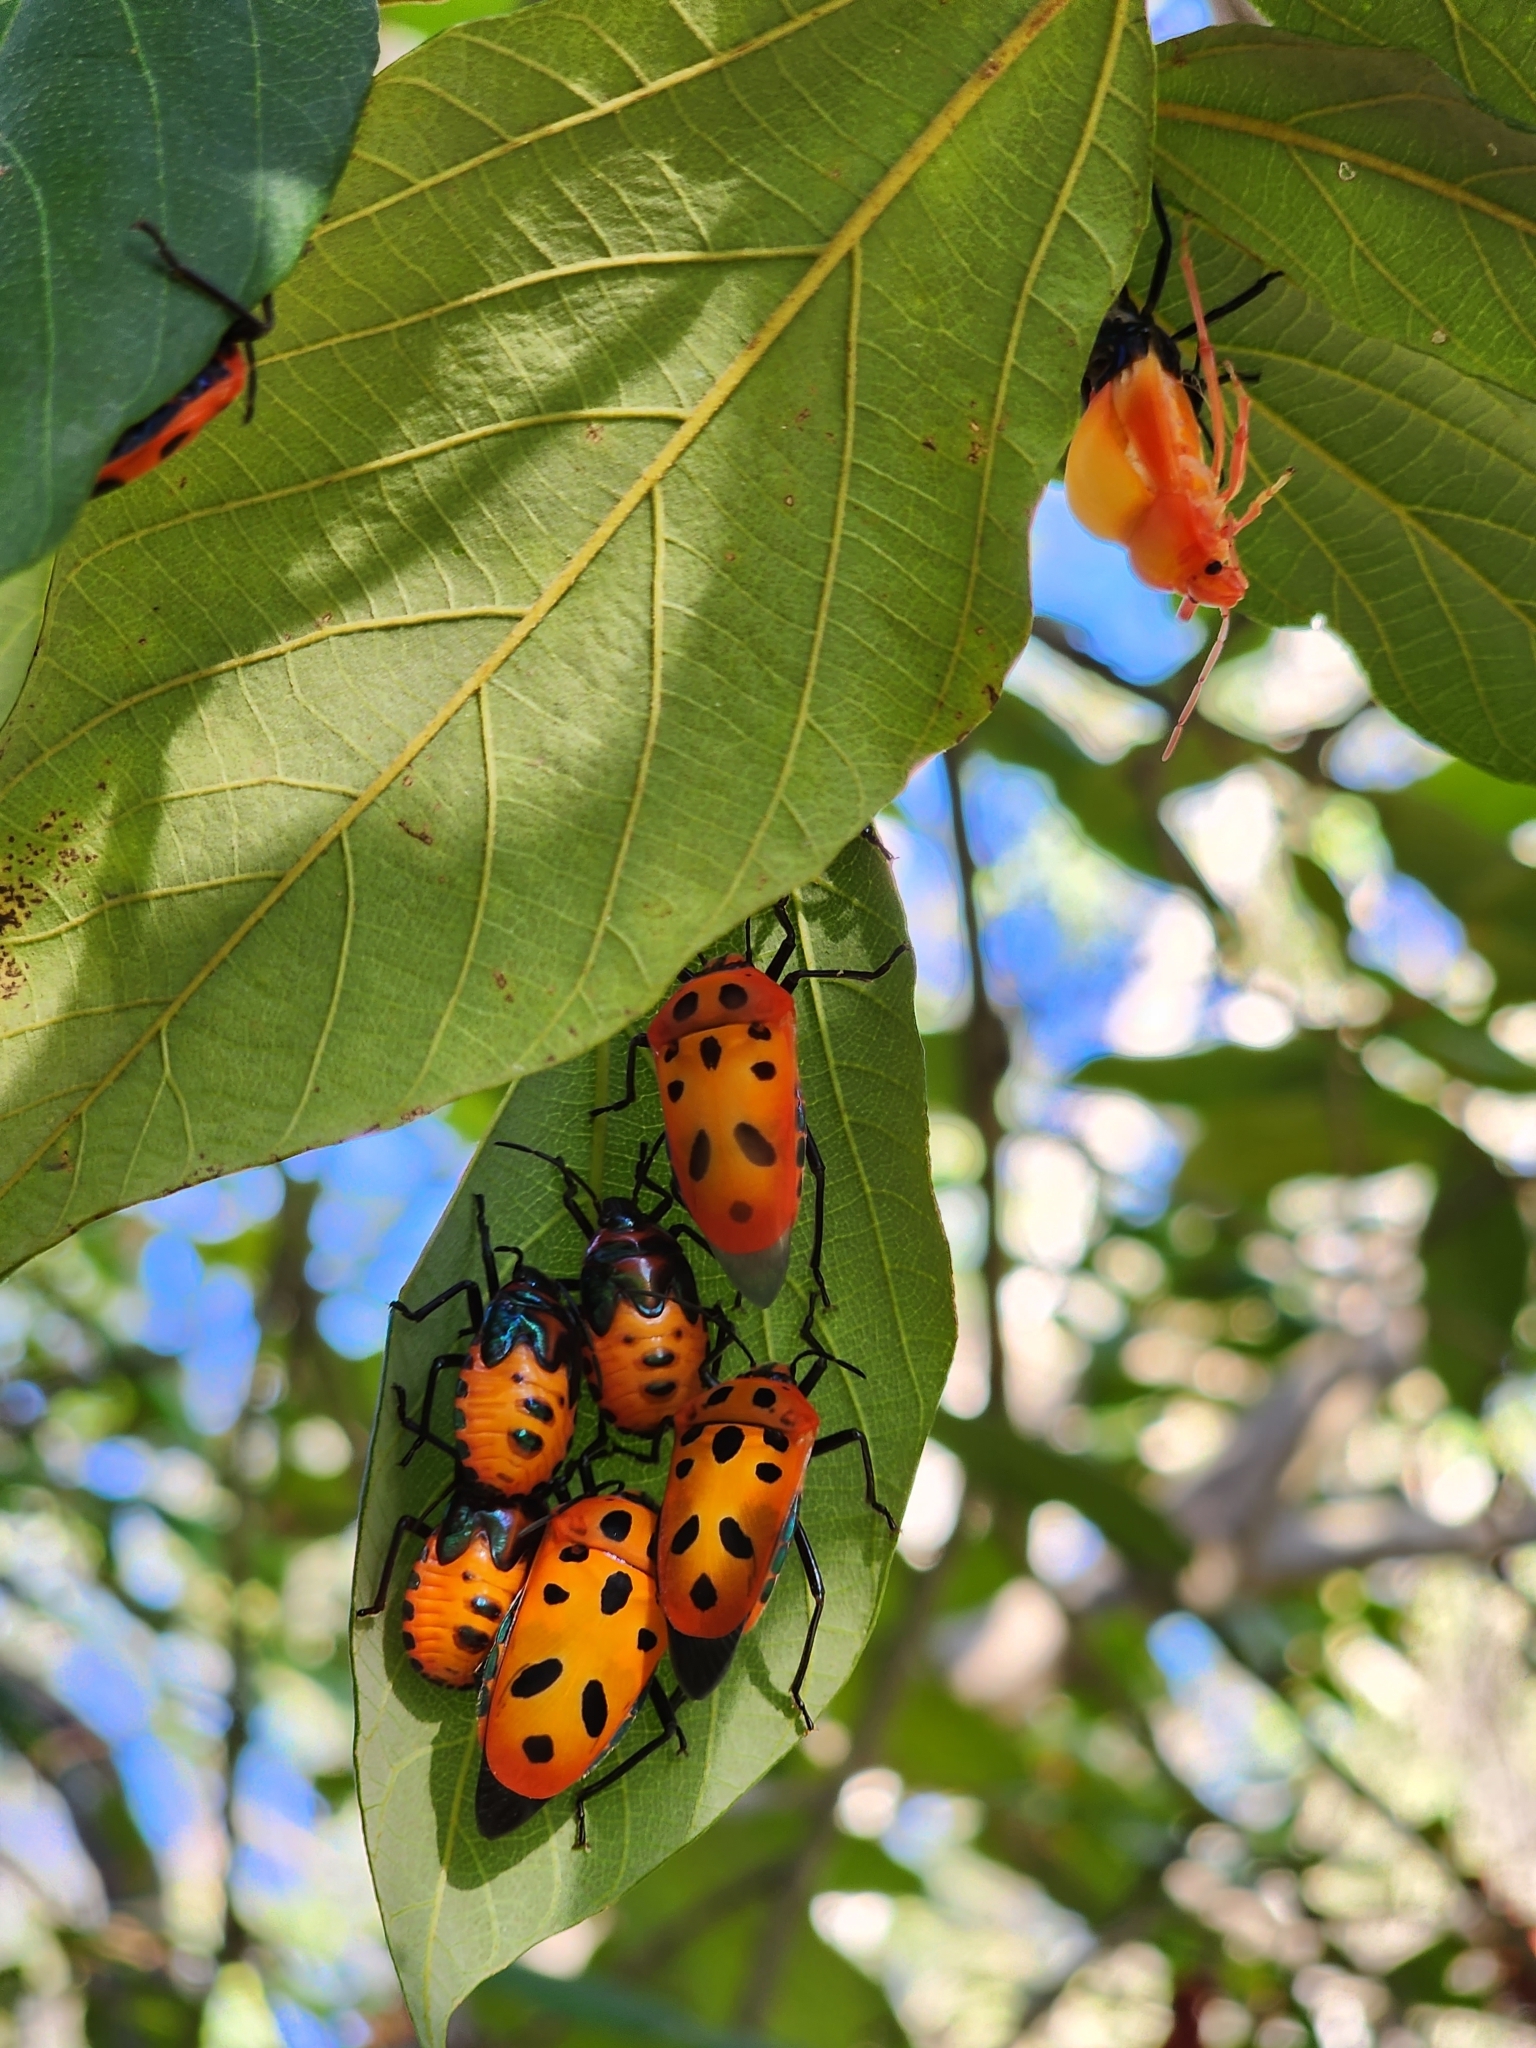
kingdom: Animalia
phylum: Arthropoda
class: Insecta
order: Hemiptera
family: Scutelleridae
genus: Cantao
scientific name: Cantao
